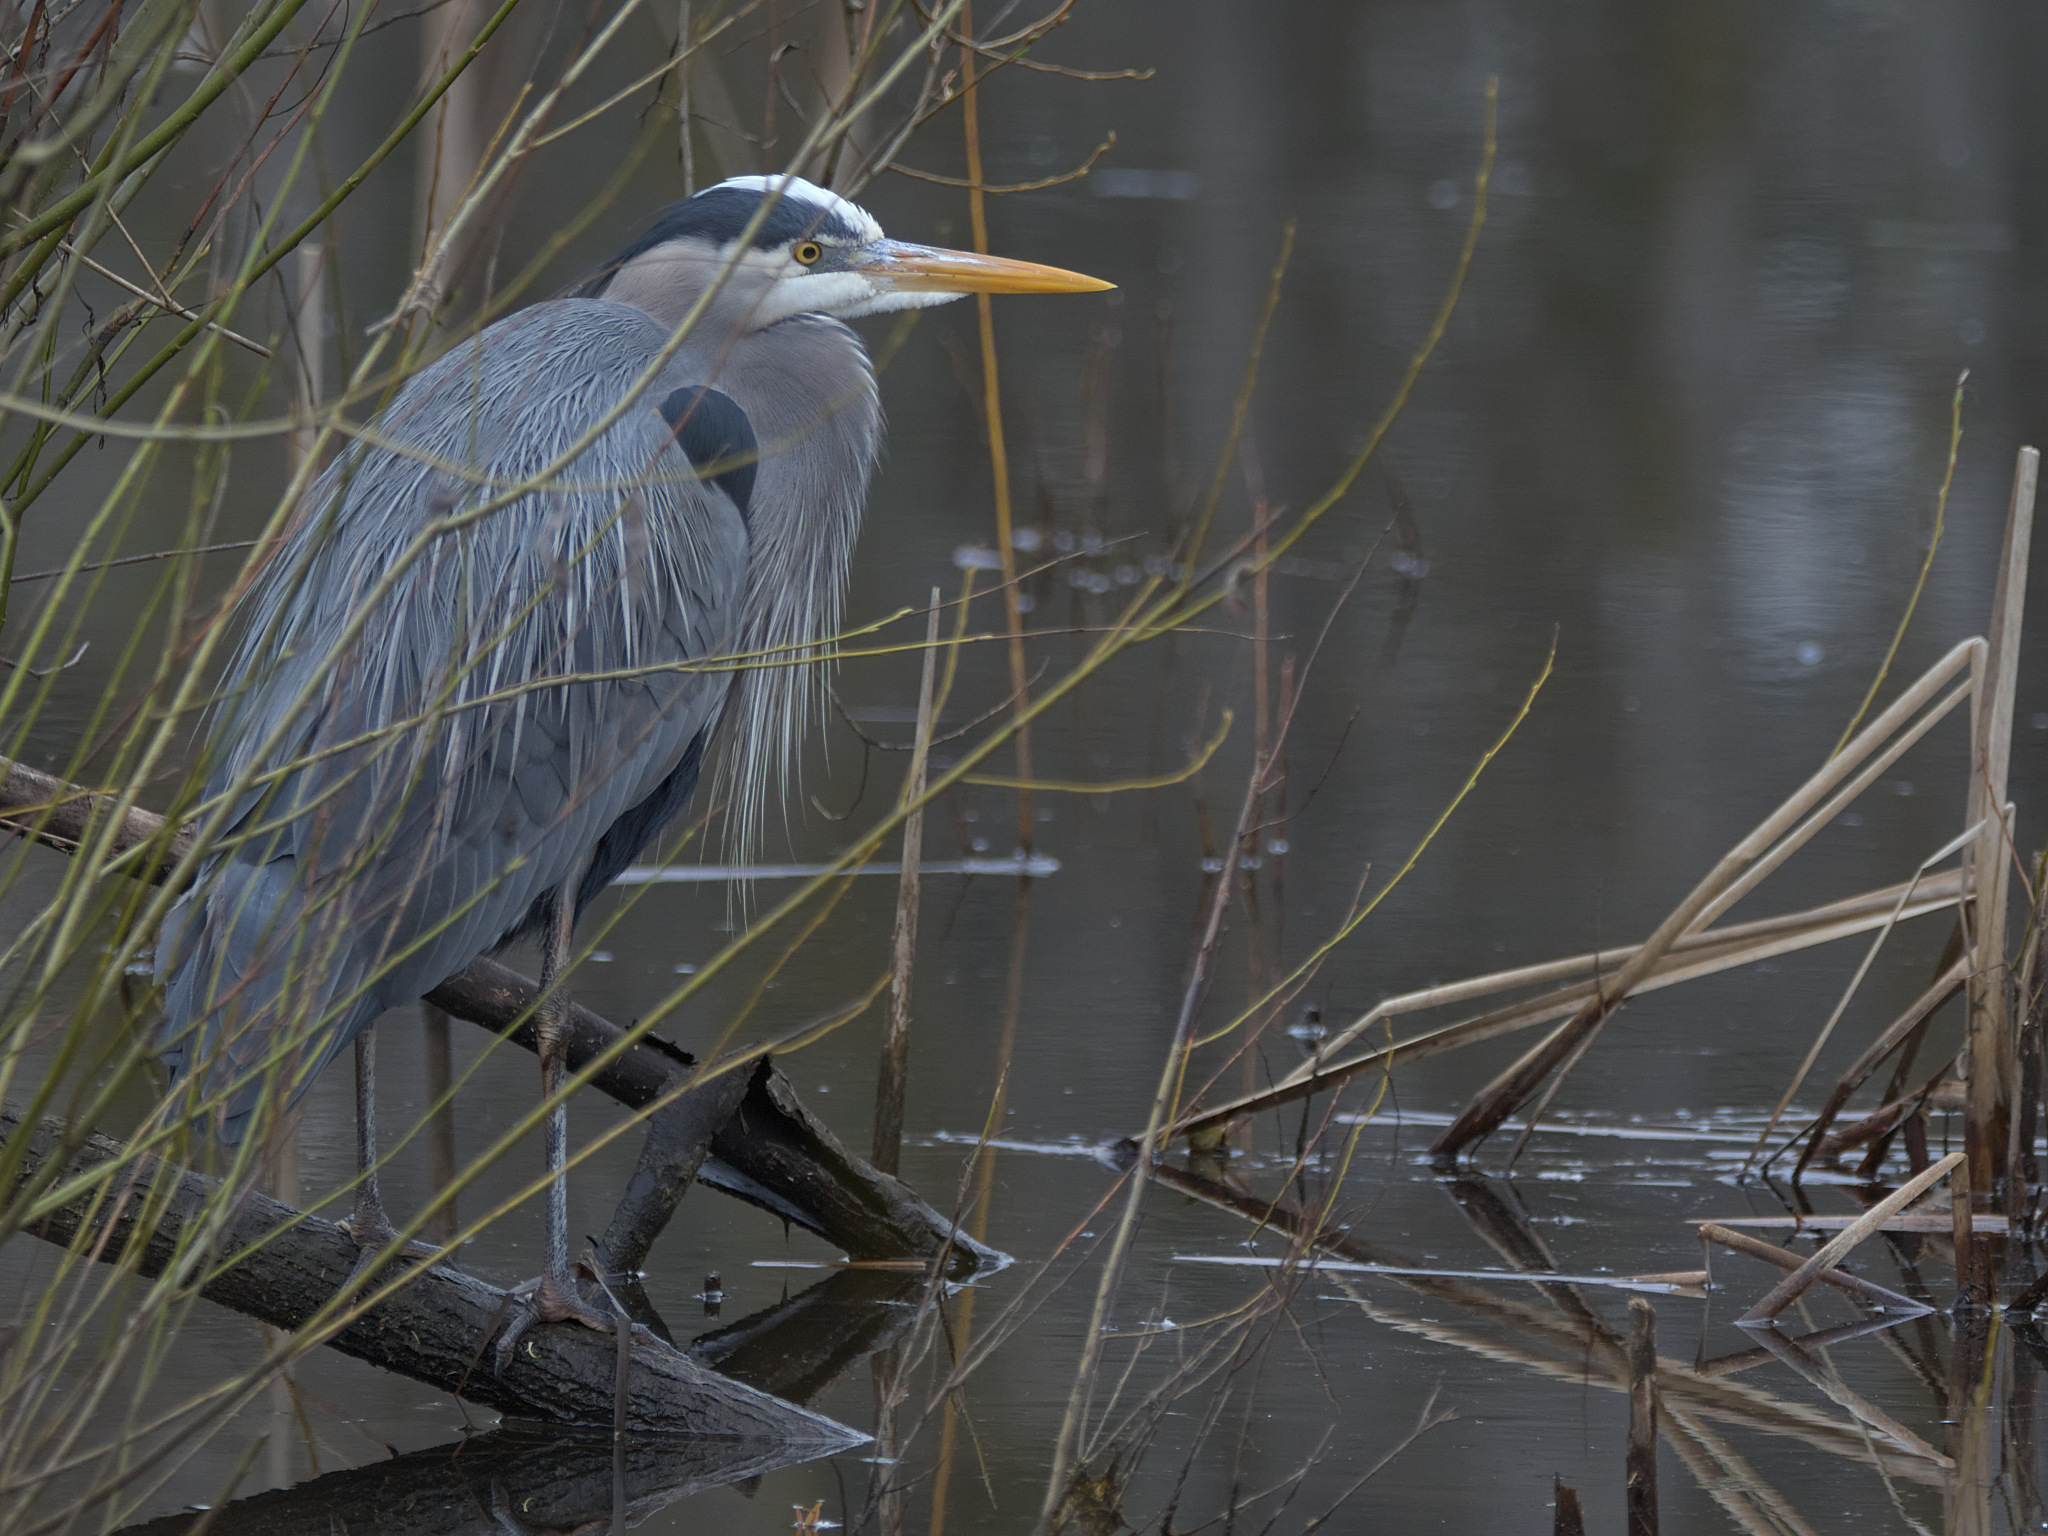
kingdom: Animalia
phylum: Chordata
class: Aves
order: Pelecaniformes
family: Ardeidae
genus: Ardea
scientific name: Ardea herodias
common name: Great blue heron
